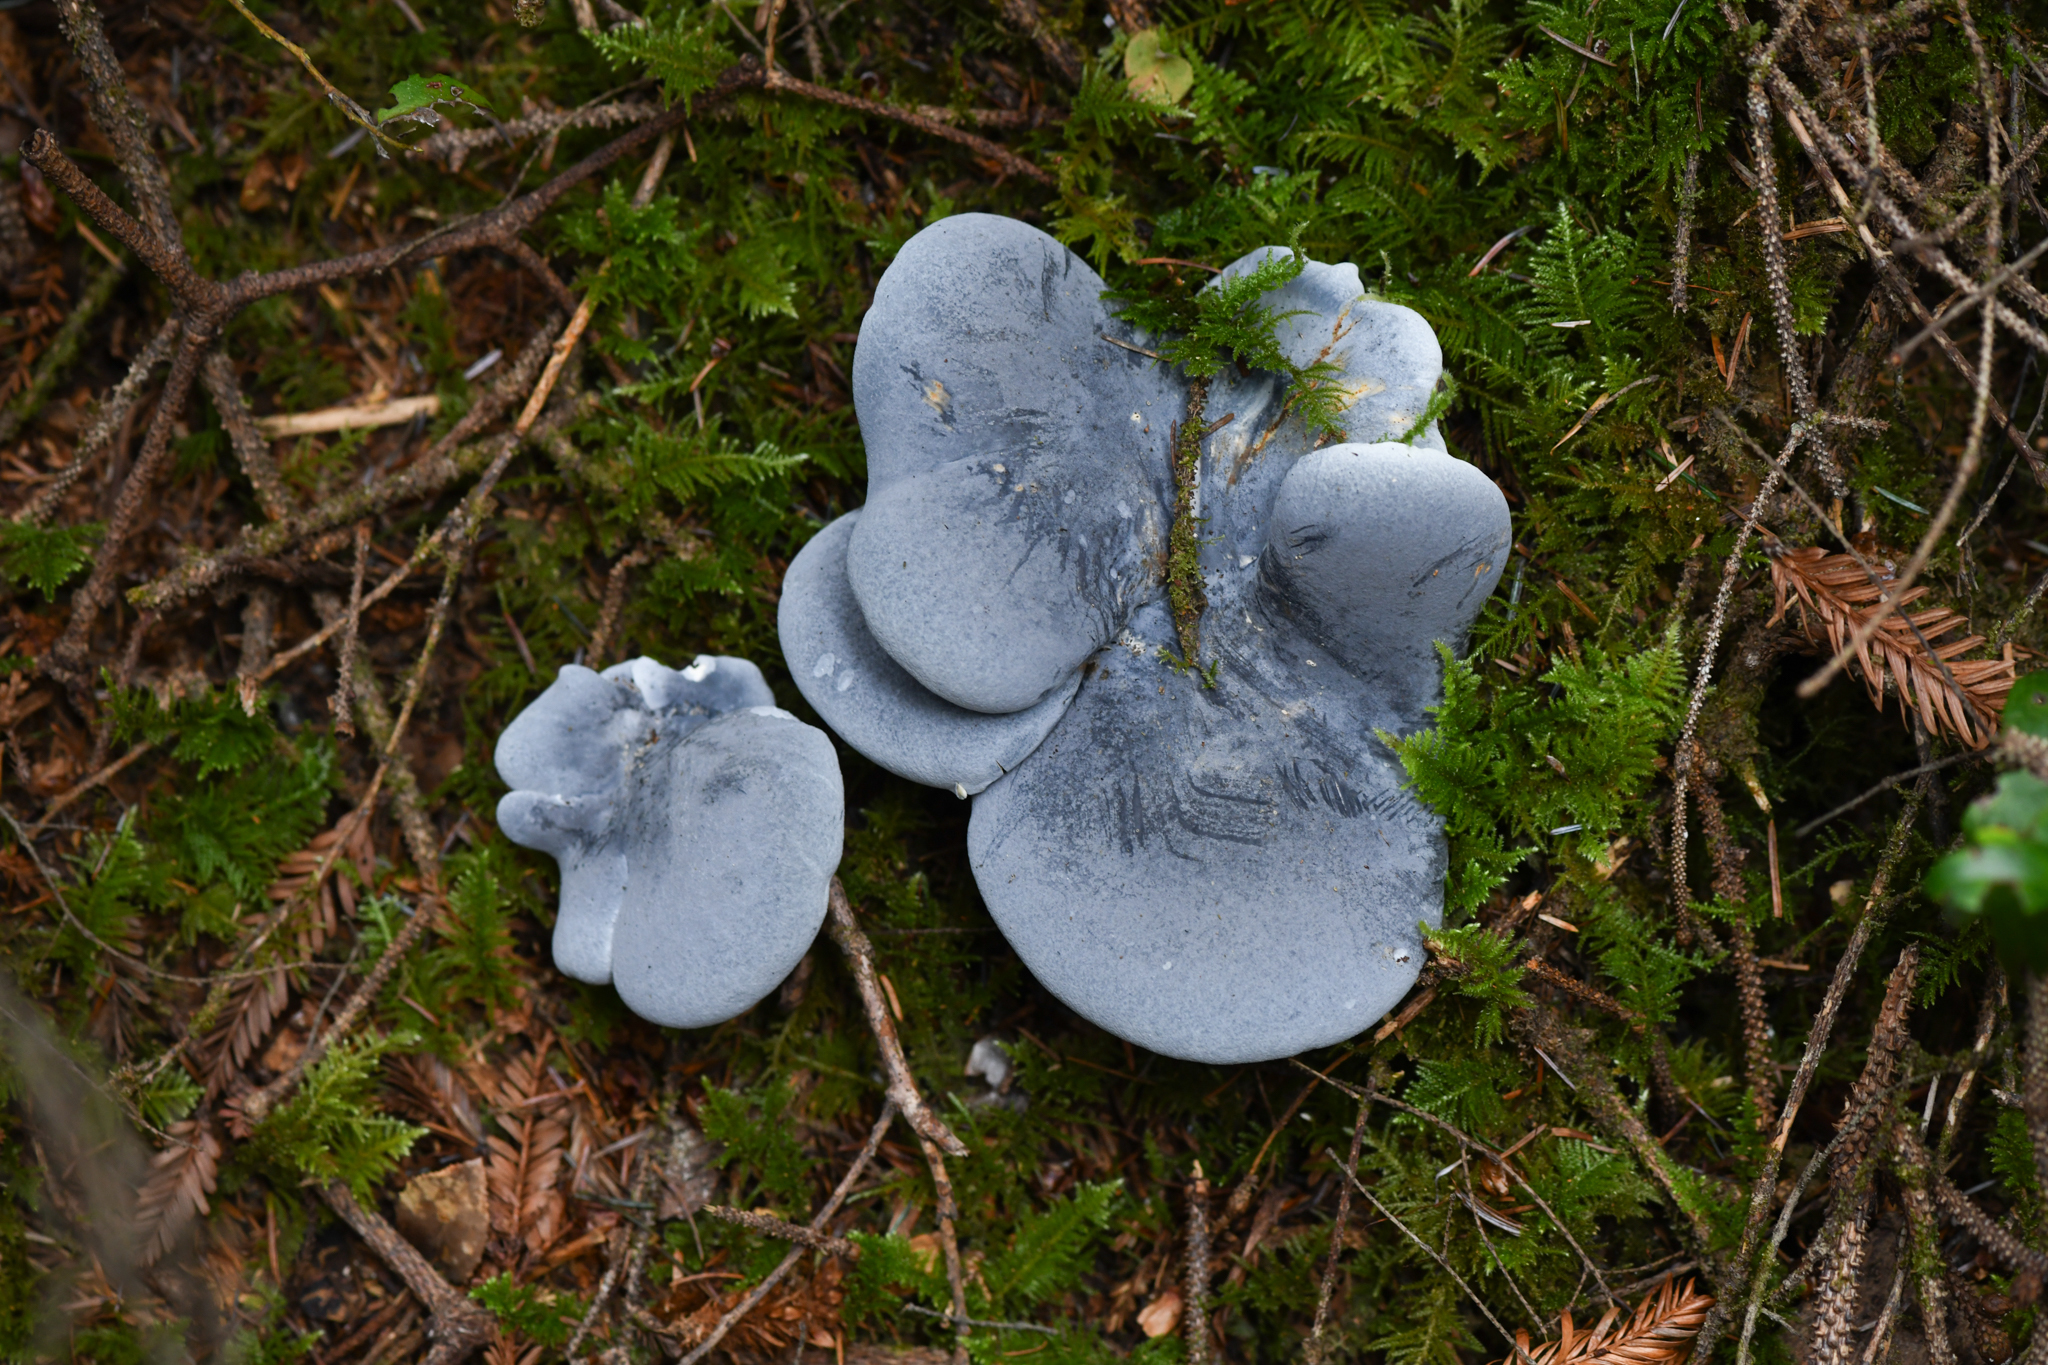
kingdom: Fungi
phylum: Basidiomycota
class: Agaricomycetes
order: Russulales
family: Albatrellaceae
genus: Albatrellopsis
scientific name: Albatrellopsis flettii
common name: Blue polypore
